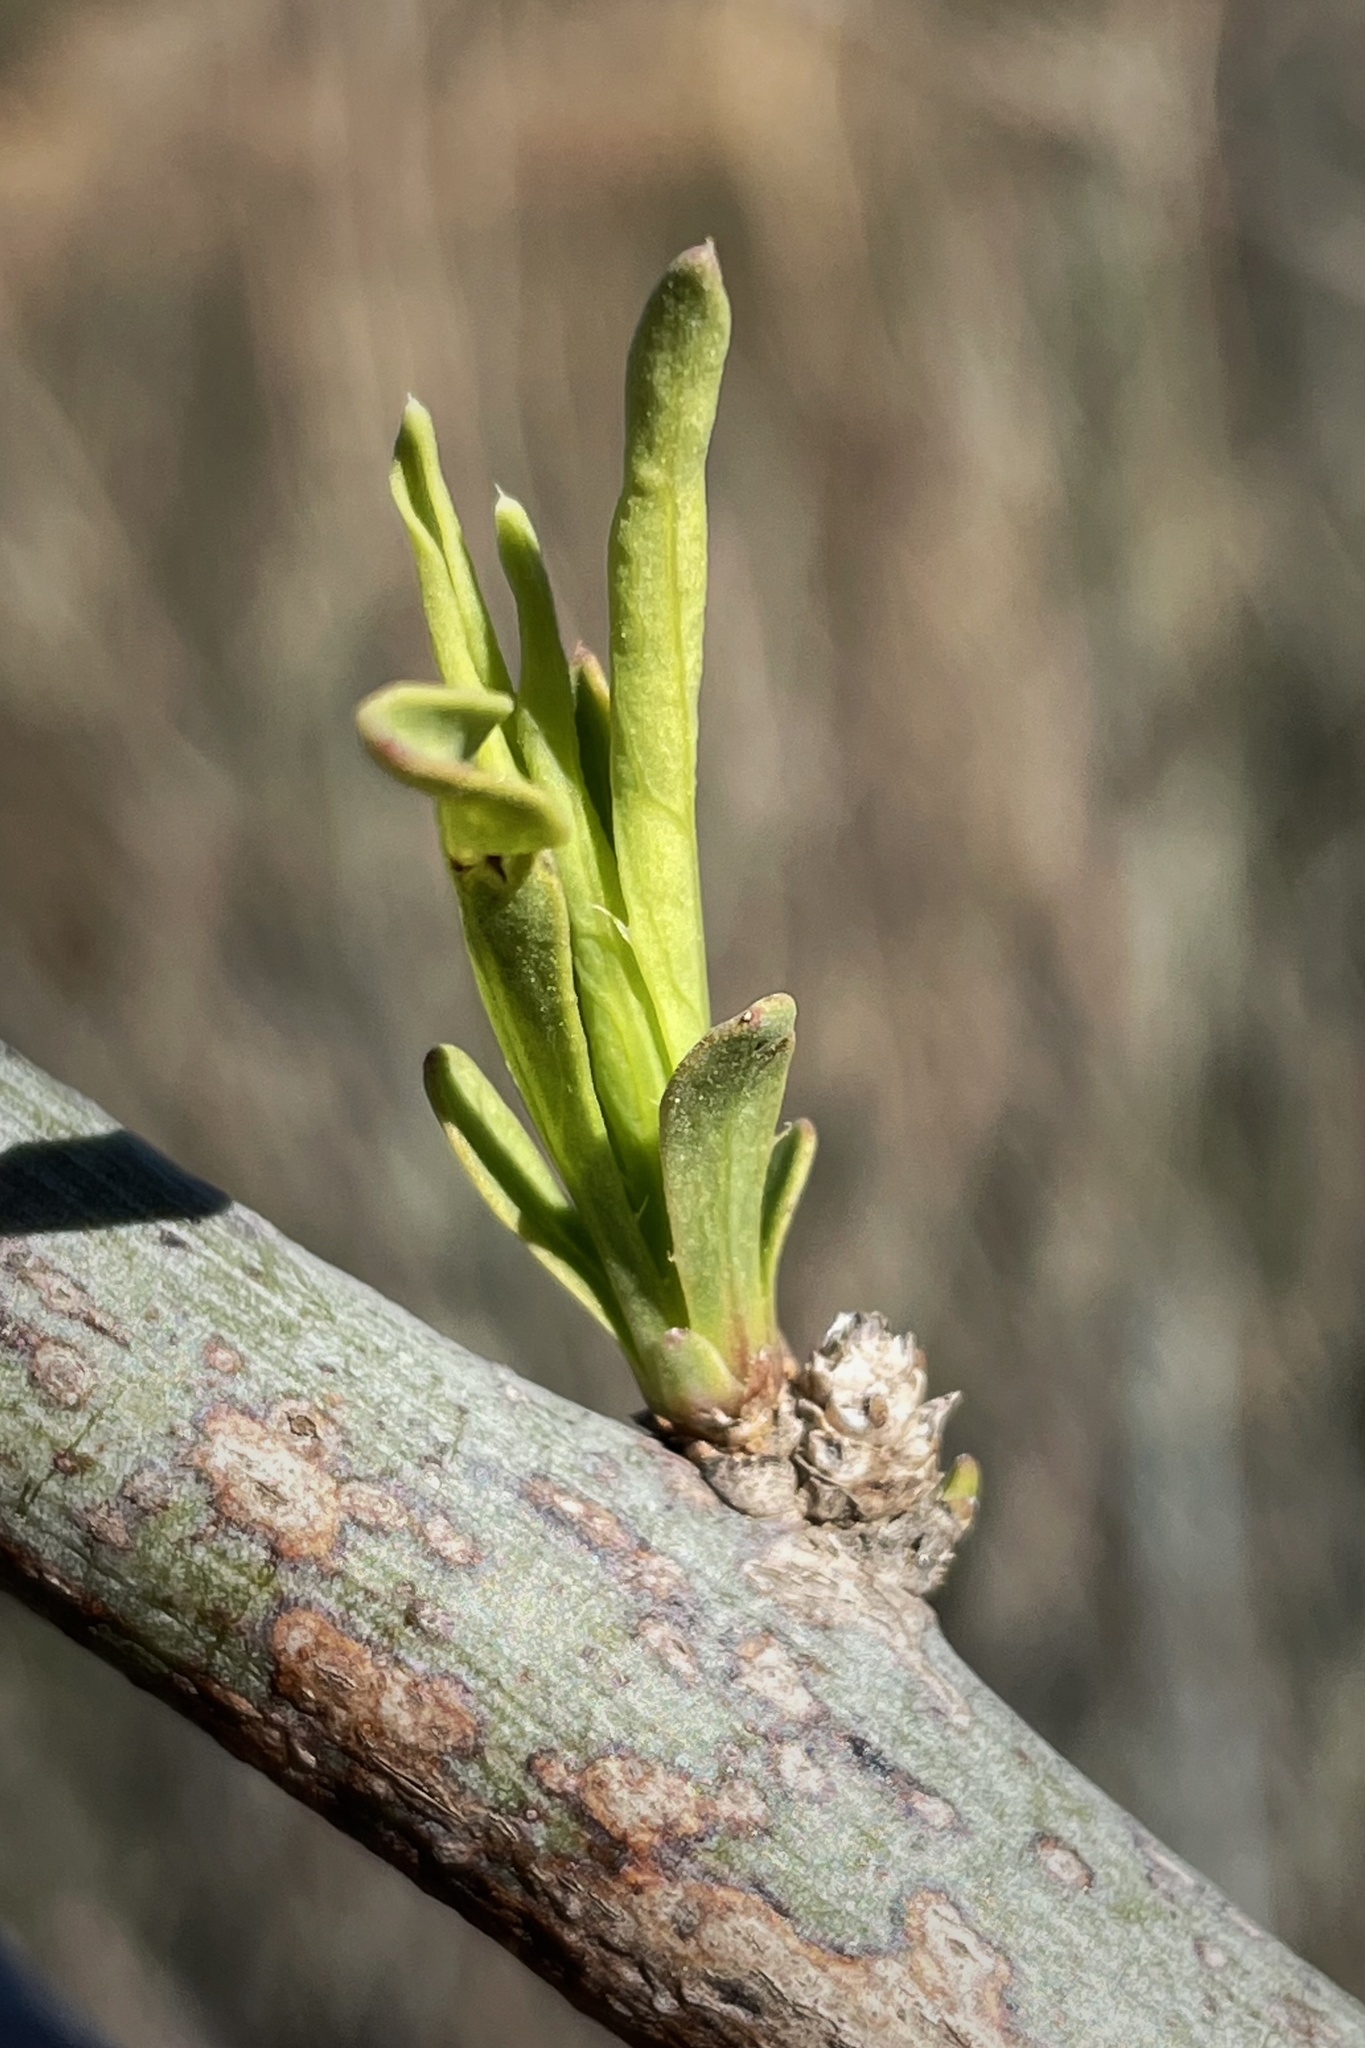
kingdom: Plantae
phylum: Tracheophyta
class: Magnoliopsida
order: Ranunculales
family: Papaveraceae
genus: Romneya
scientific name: Romneya trichocalyx
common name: Hairy matilija-poppy
